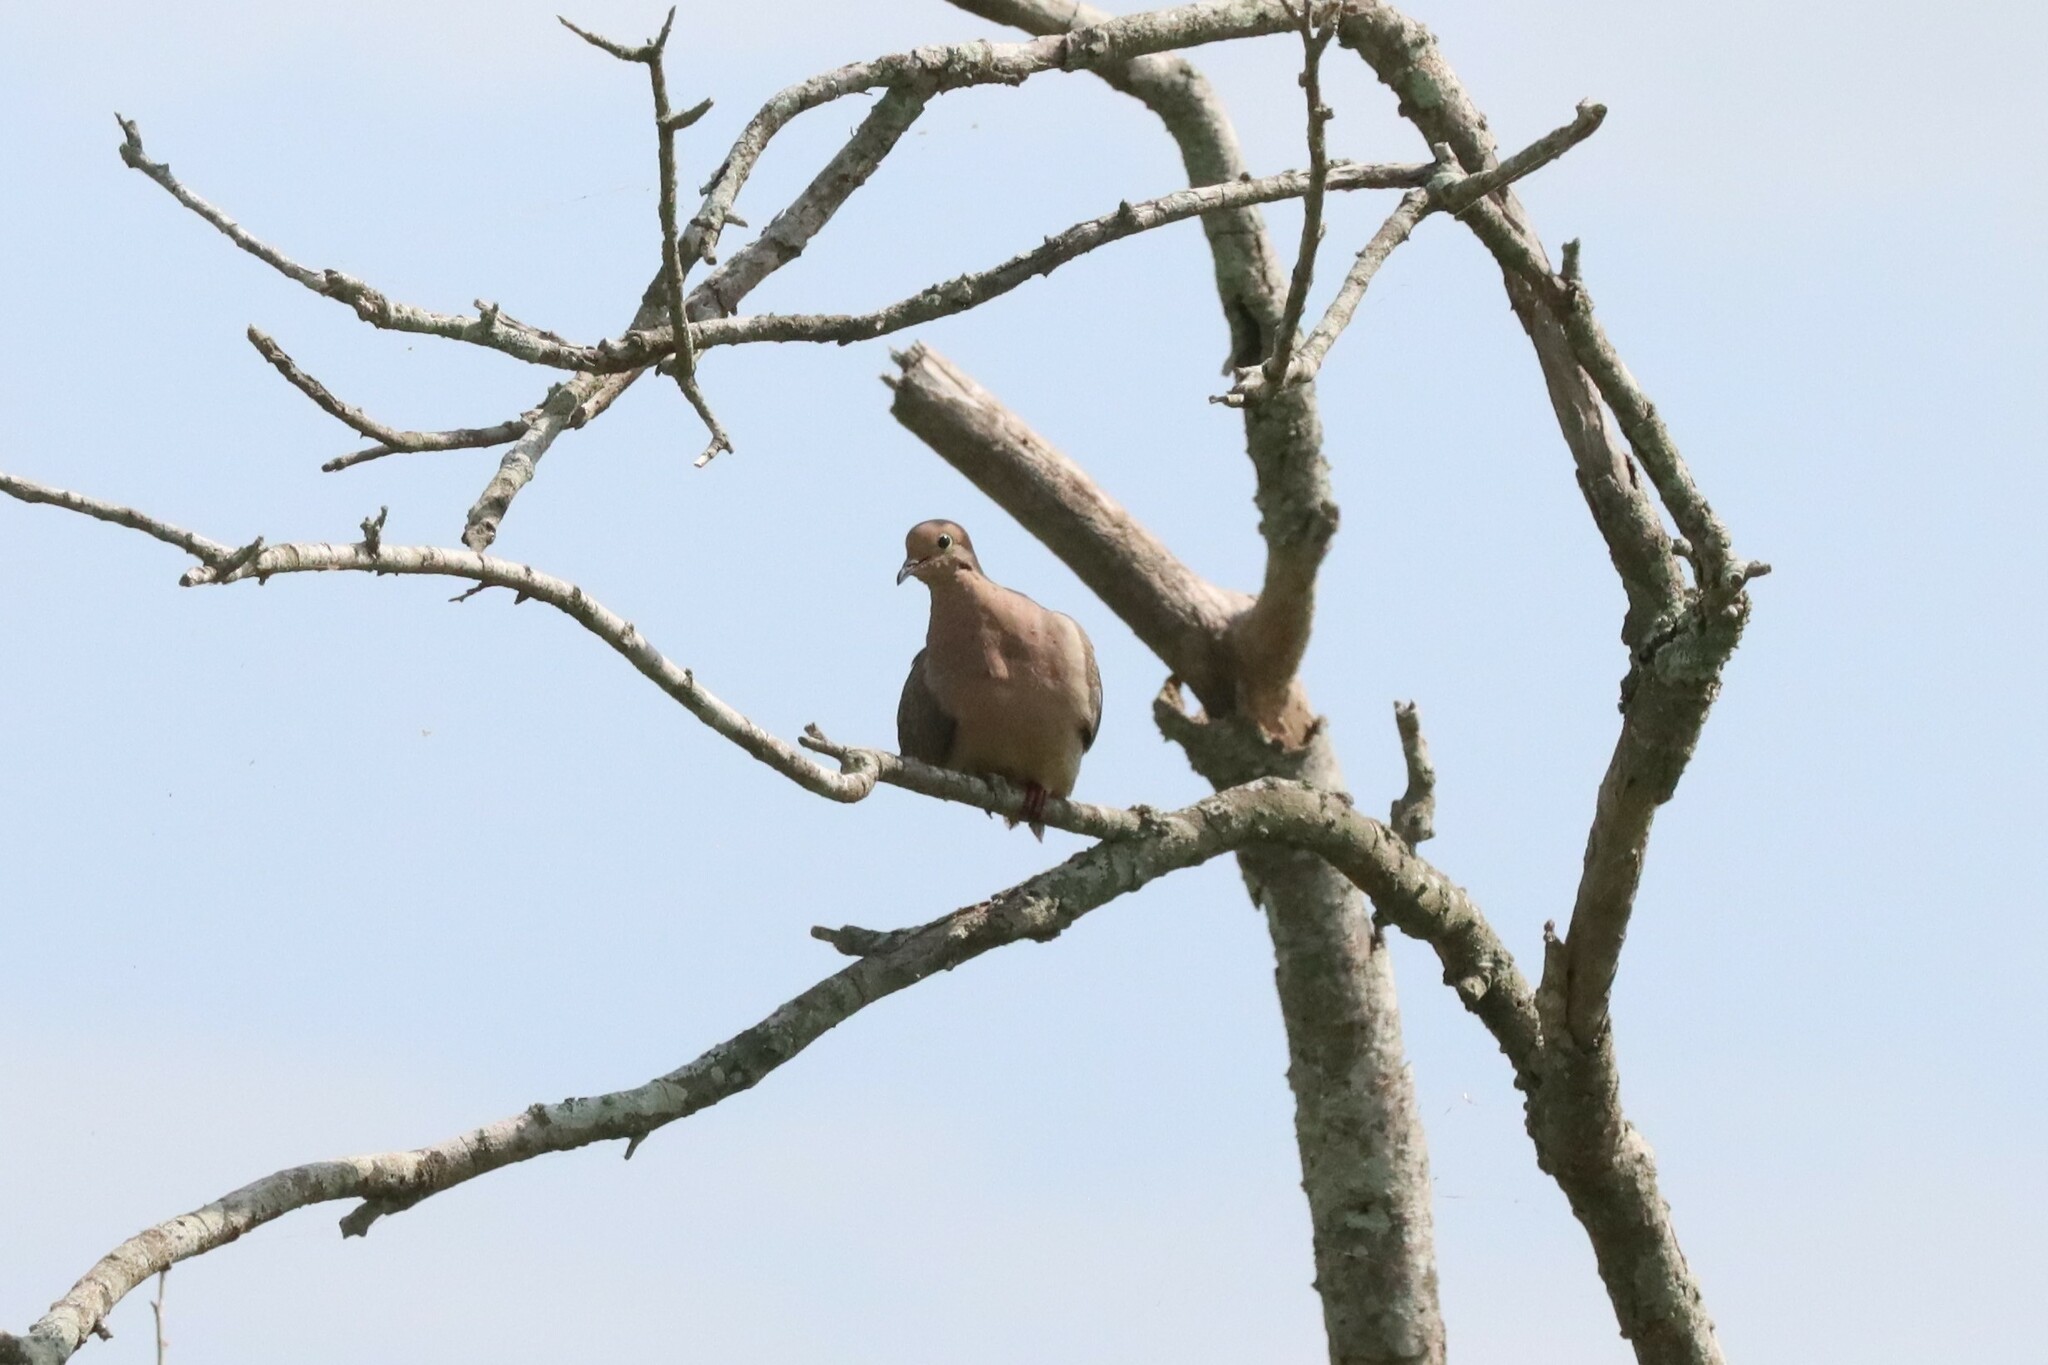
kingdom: Animalia
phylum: Chordata
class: Aves
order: Columbiformes
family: Columbidae
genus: Zenaida
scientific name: Zenaida macroura
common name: Mourning dove
